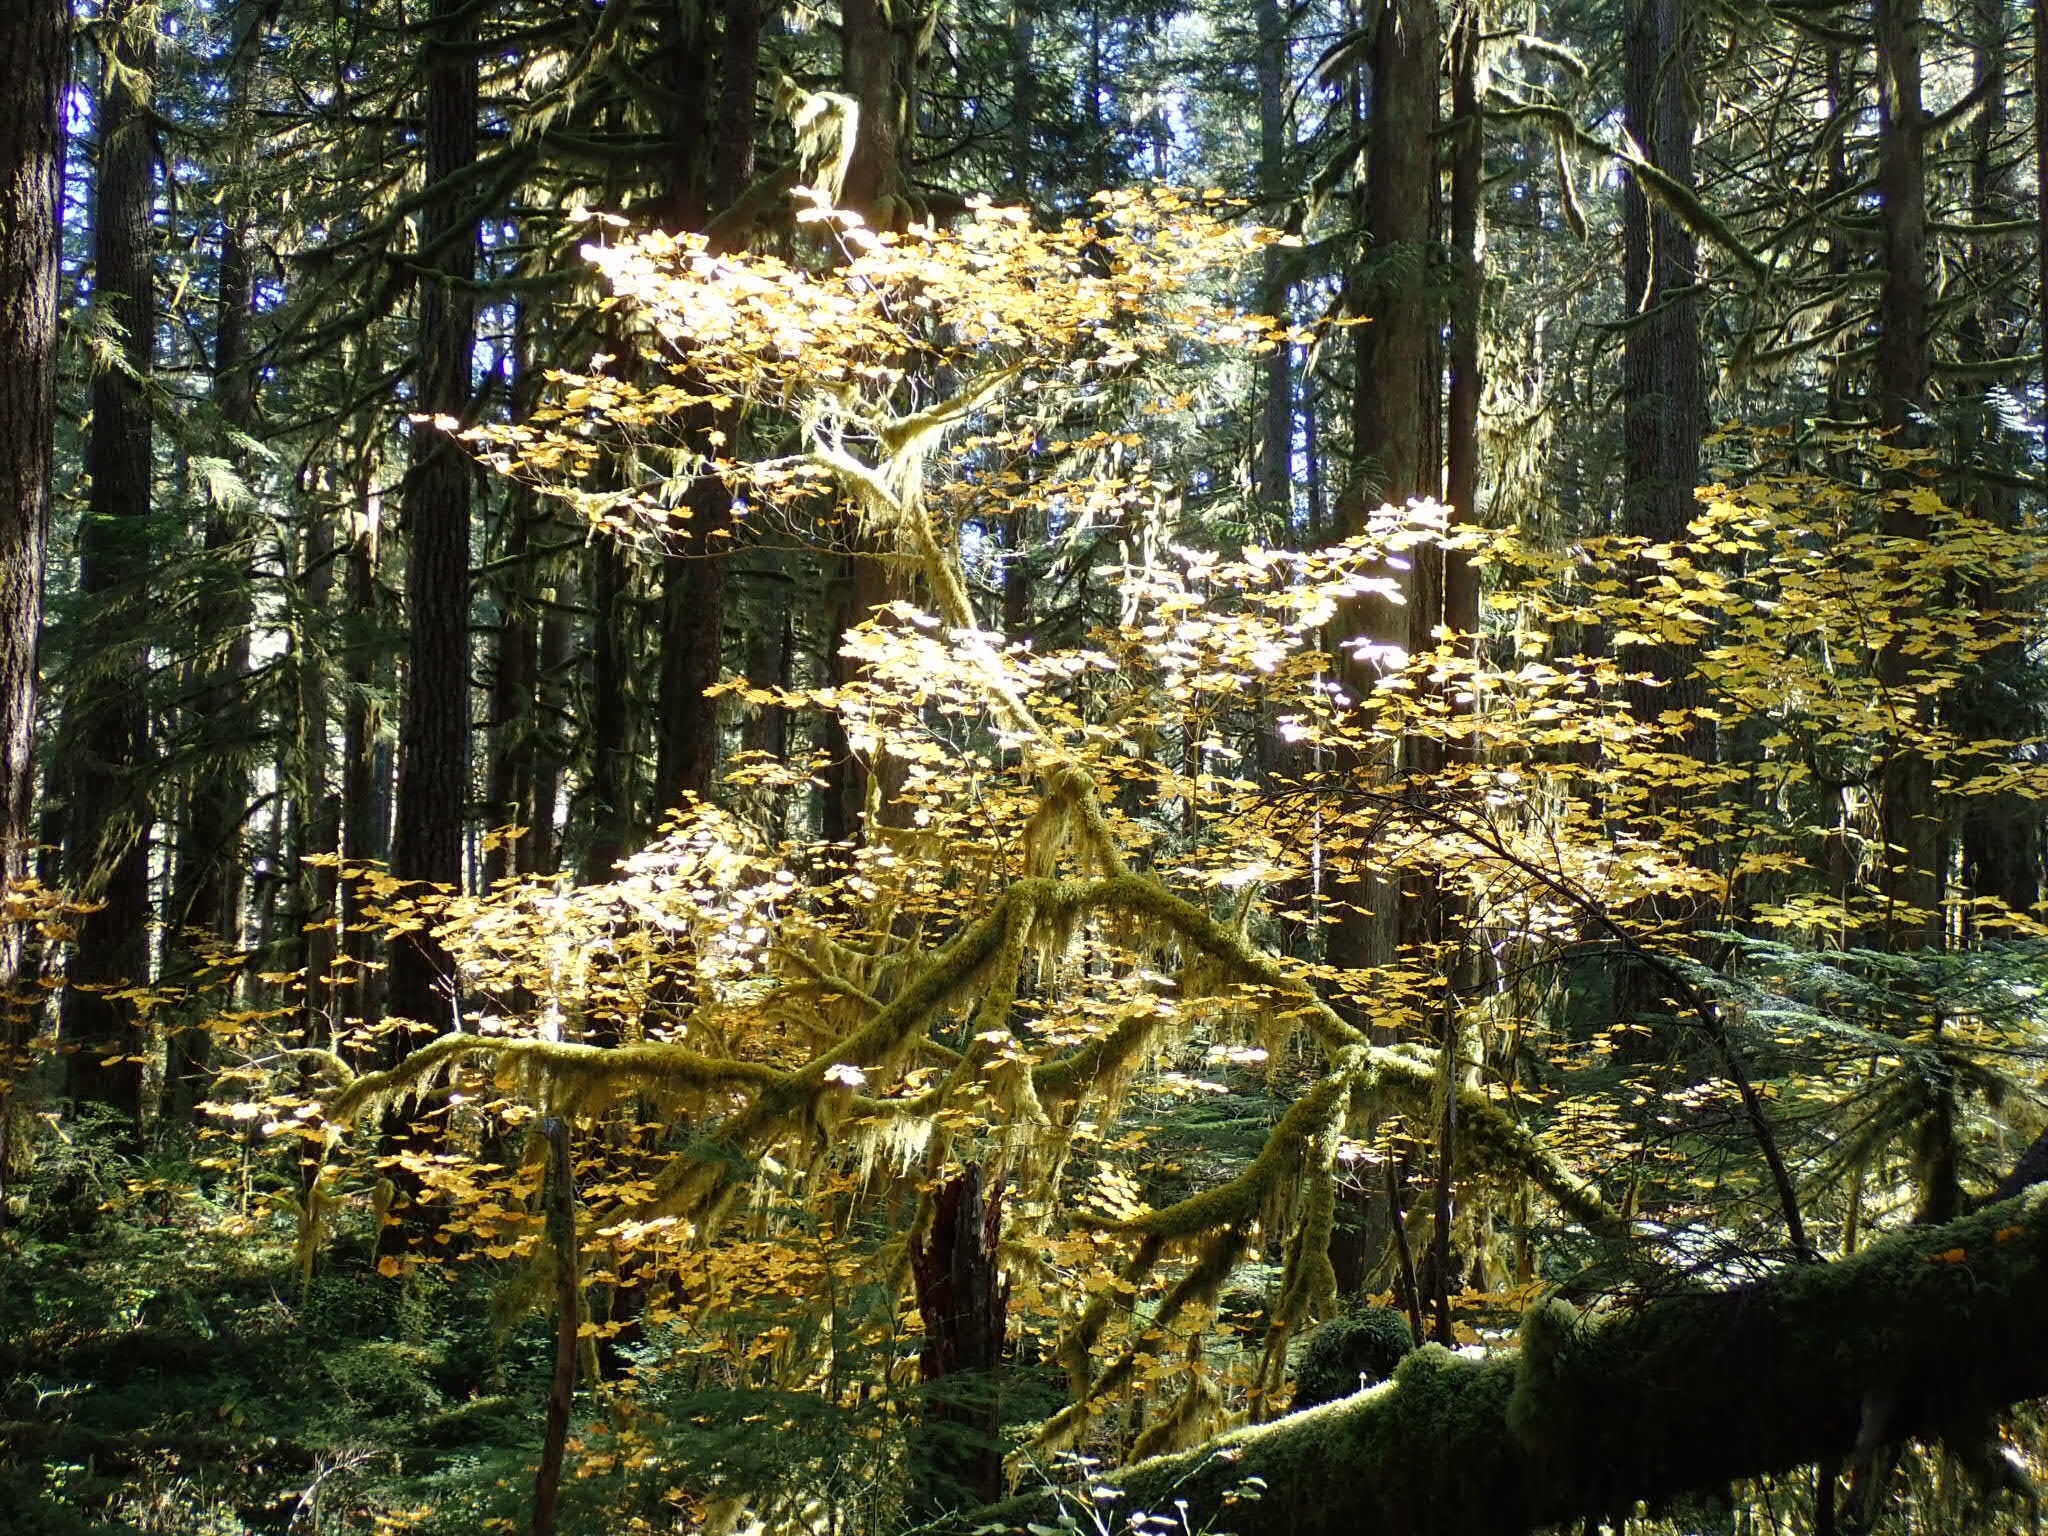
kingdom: Plantae
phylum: Tracheophyta
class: Magnoliopsida
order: Sapindales
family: Sapindaceae
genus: Acer
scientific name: Acer circinatum
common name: Vine maple
